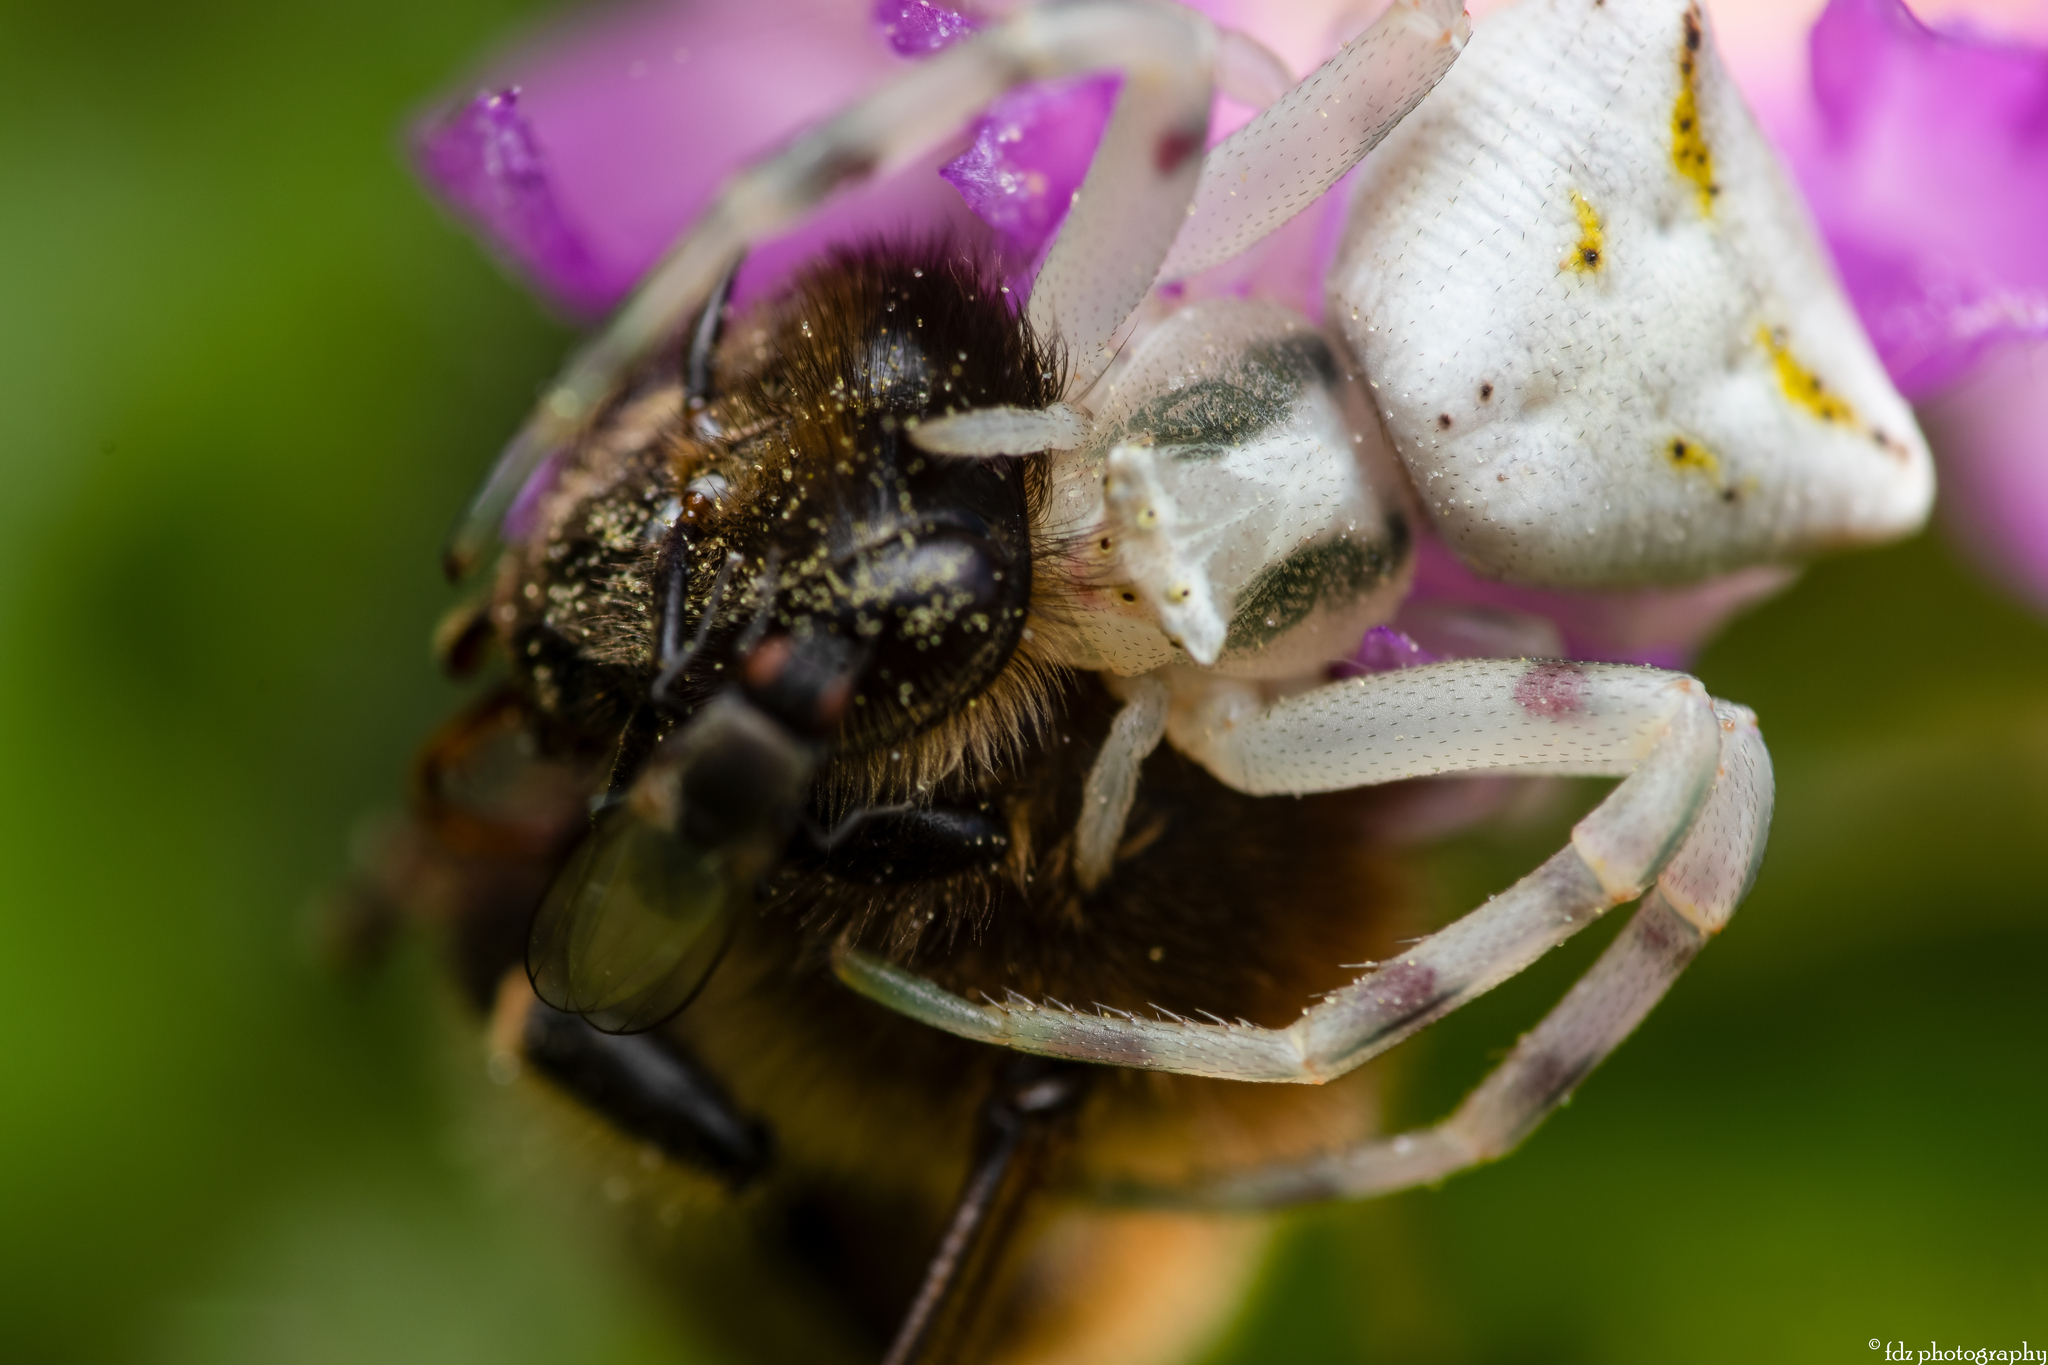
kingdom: Animalia
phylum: Arthropoda
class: Arachnida
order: Araneae
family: Thomisidae
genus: Thomisus
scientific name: Thomisus onustus
